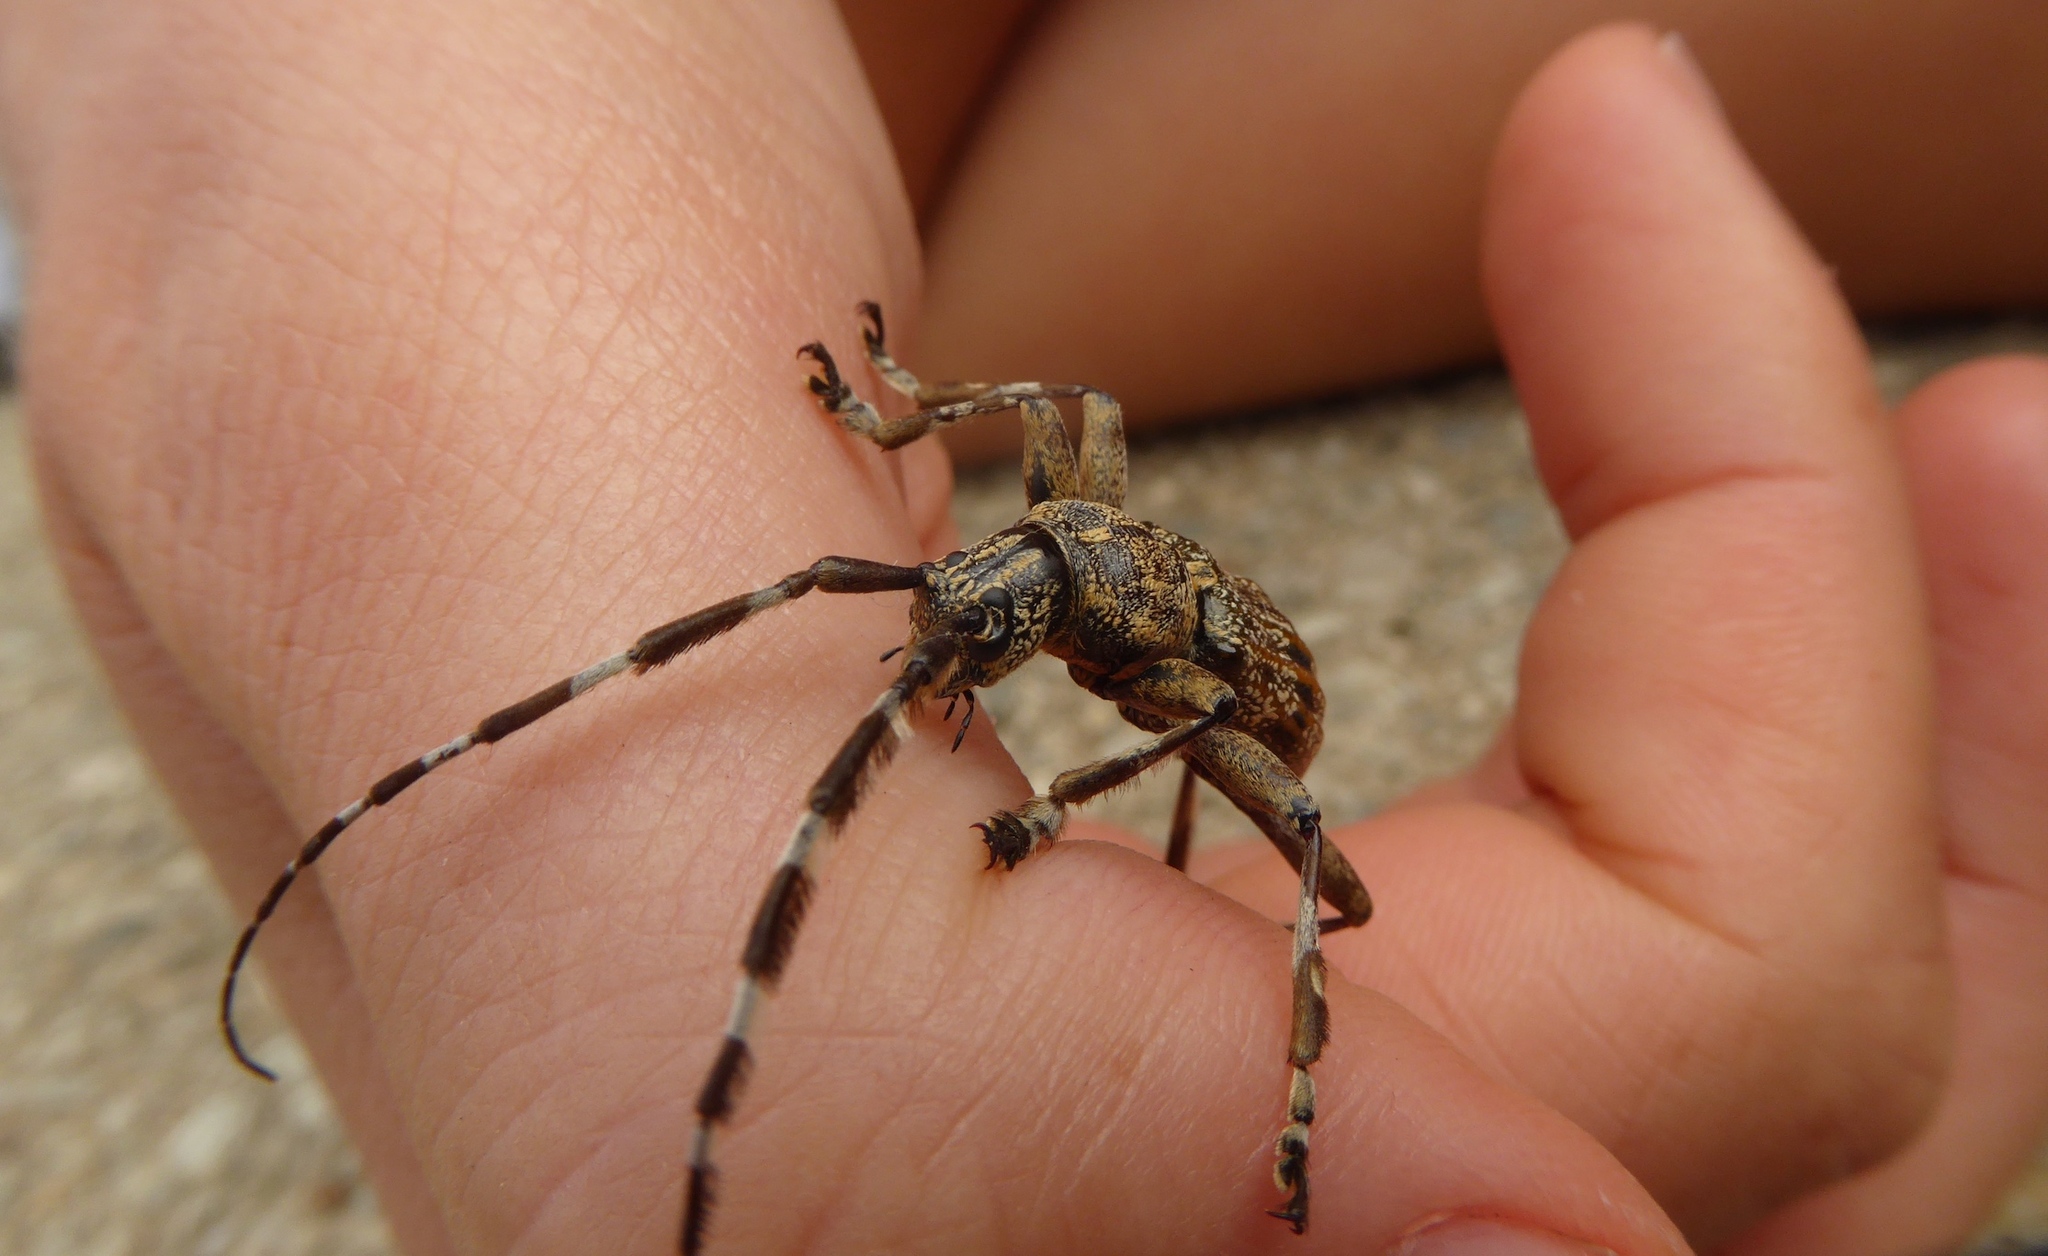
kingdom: Animalia
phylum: Arthropoda
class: Insecta
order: Coleoptera
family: Cerambycidae
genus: Hexatricha
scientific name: Hexatricha pulverulenta
